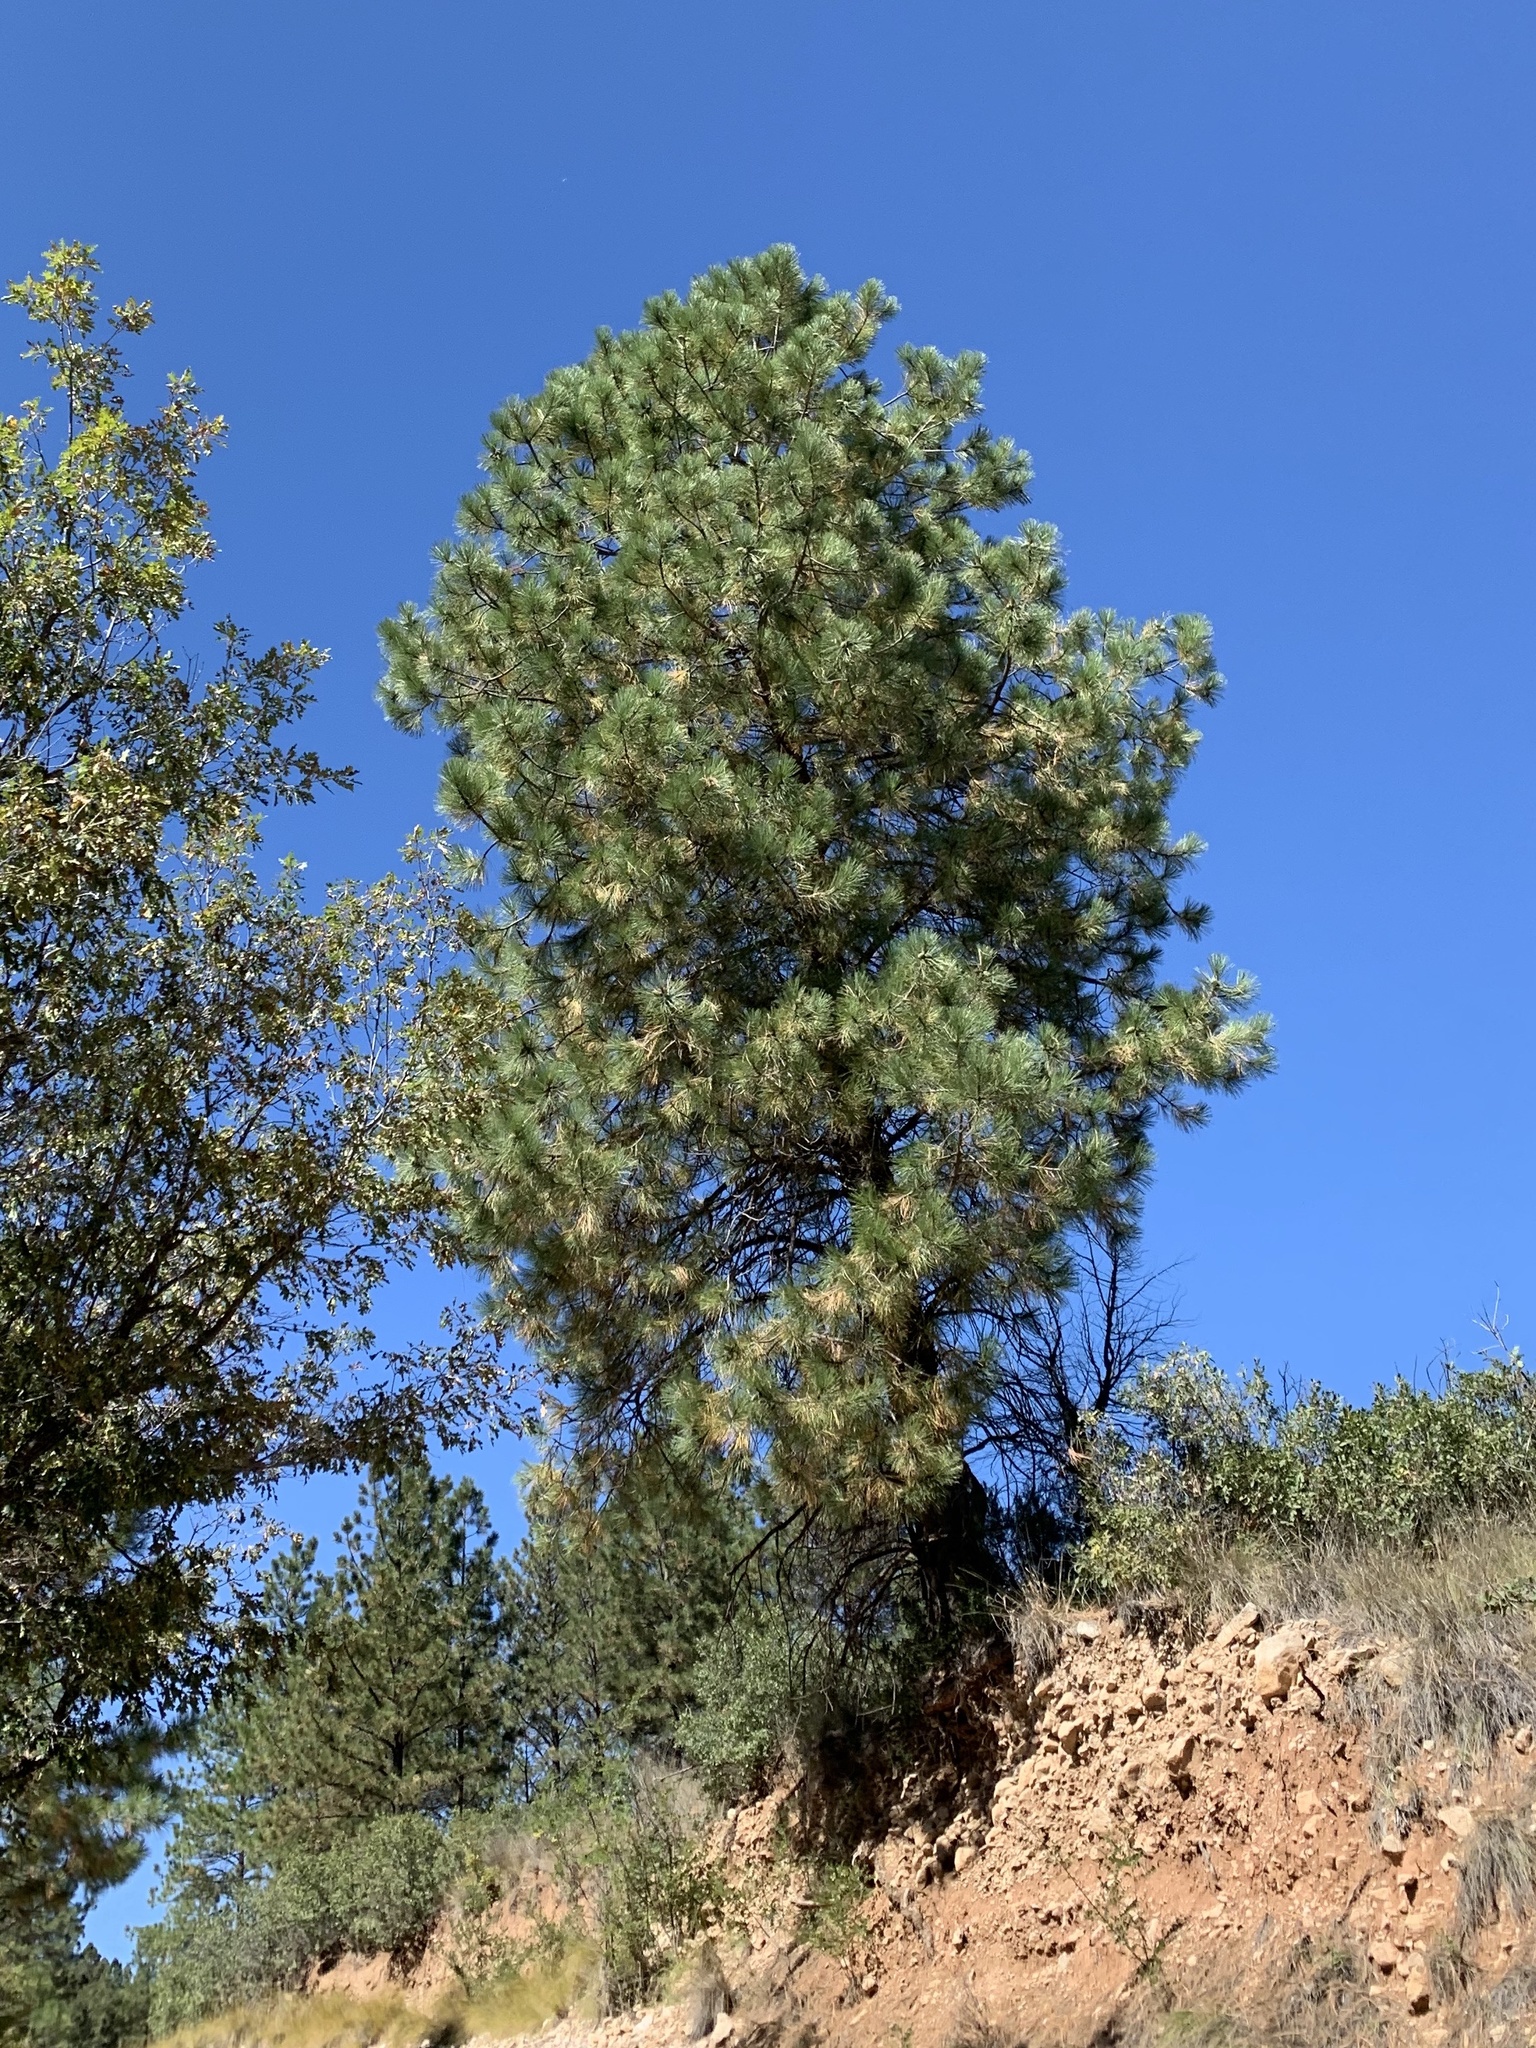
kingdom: Plantae
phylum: Tracheophyta
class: Pinopsida
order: Pinales
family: Pinaceae
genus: Pinus
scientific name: Pinus ponderosa
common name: Western yellow-pine
